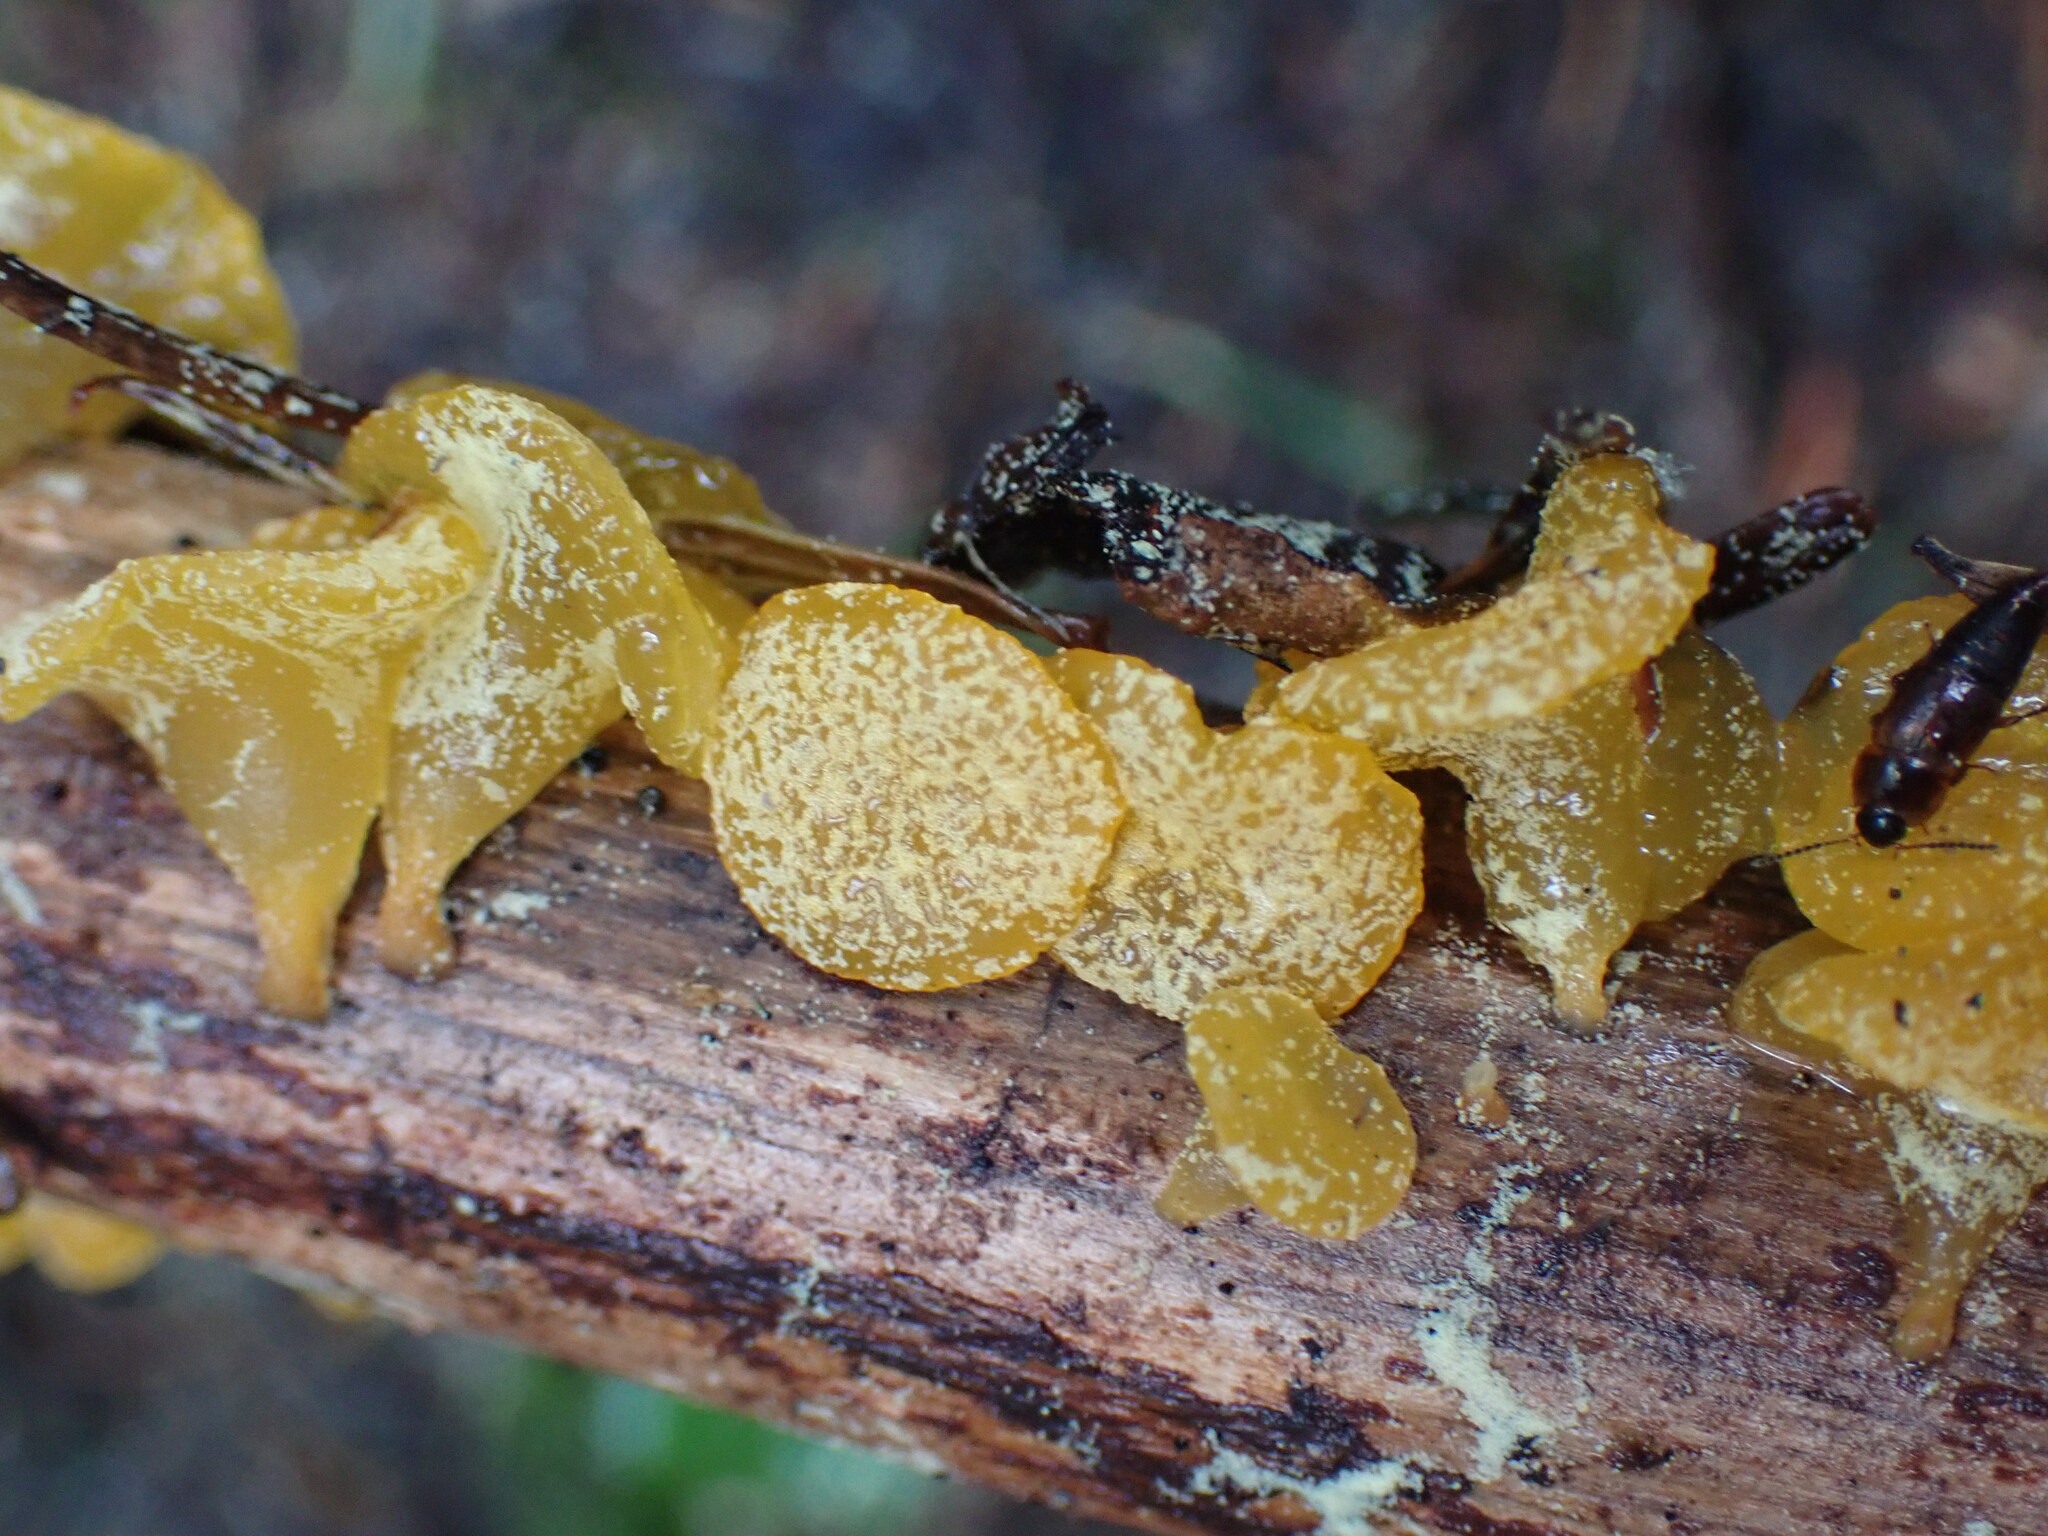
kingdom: Fungi
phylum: Basidiomycota
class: Dacrymycetes
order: Dacrymycetales
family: Dacrymycetaceae
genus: Guepiniopsis
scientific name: Guepiniopsis alpina
